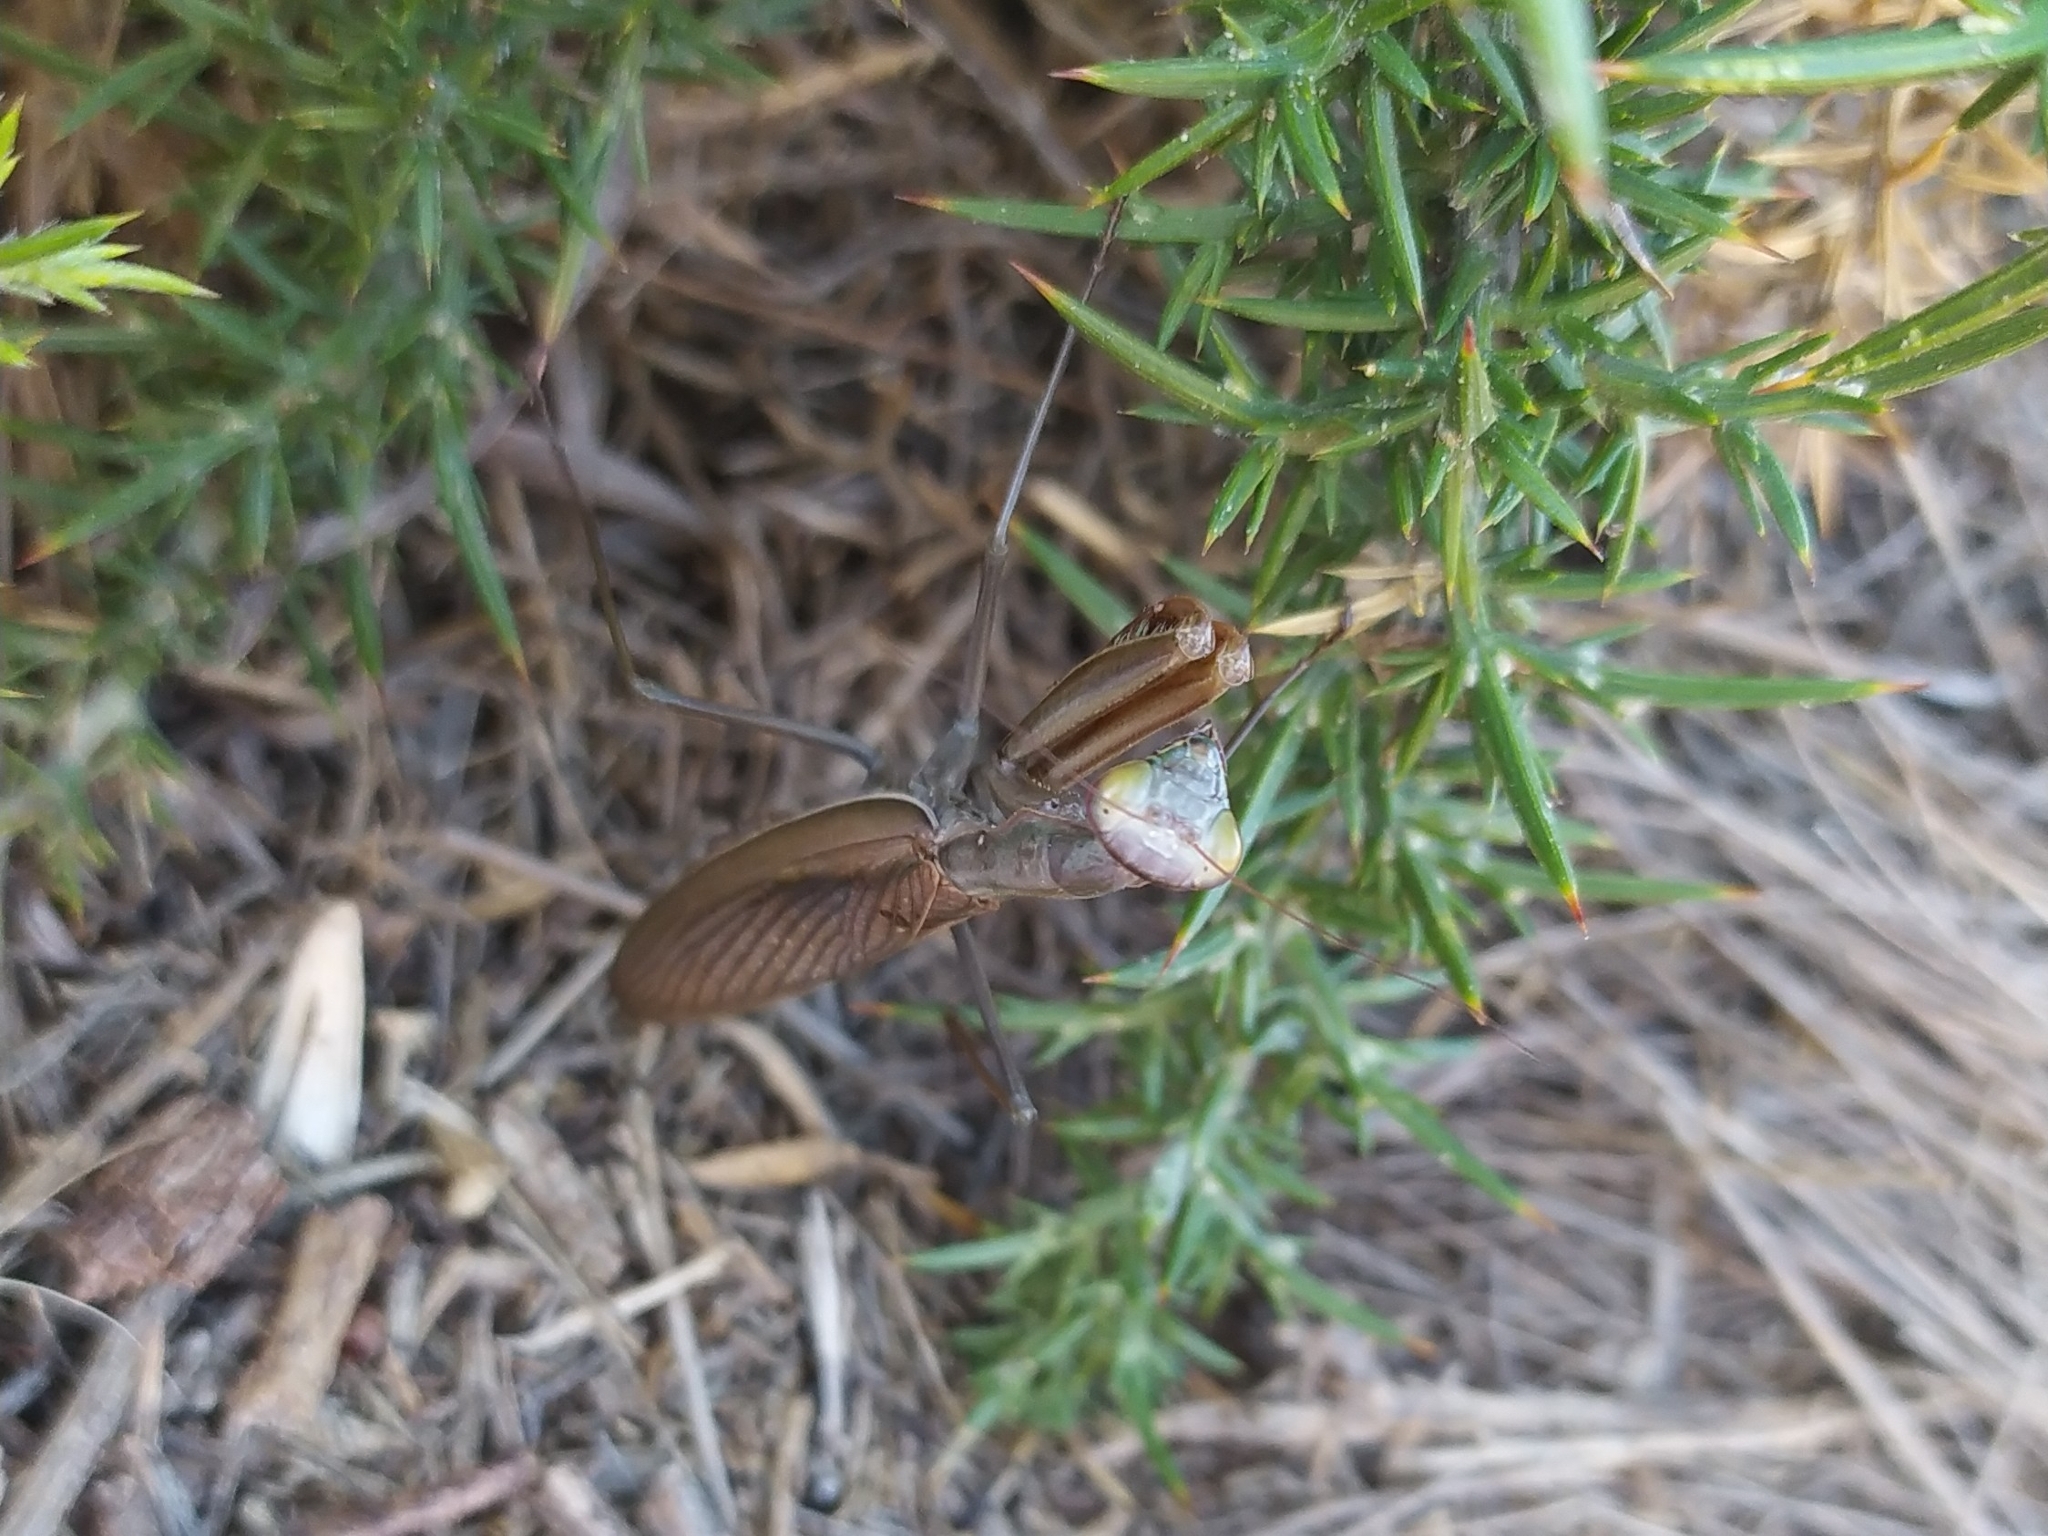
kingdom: Animalia
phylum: Arthropoda
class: Insecta
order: Mantodea
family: Mantidae
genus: Mantis
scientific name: Mantis religiosa
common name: Praying mantis
